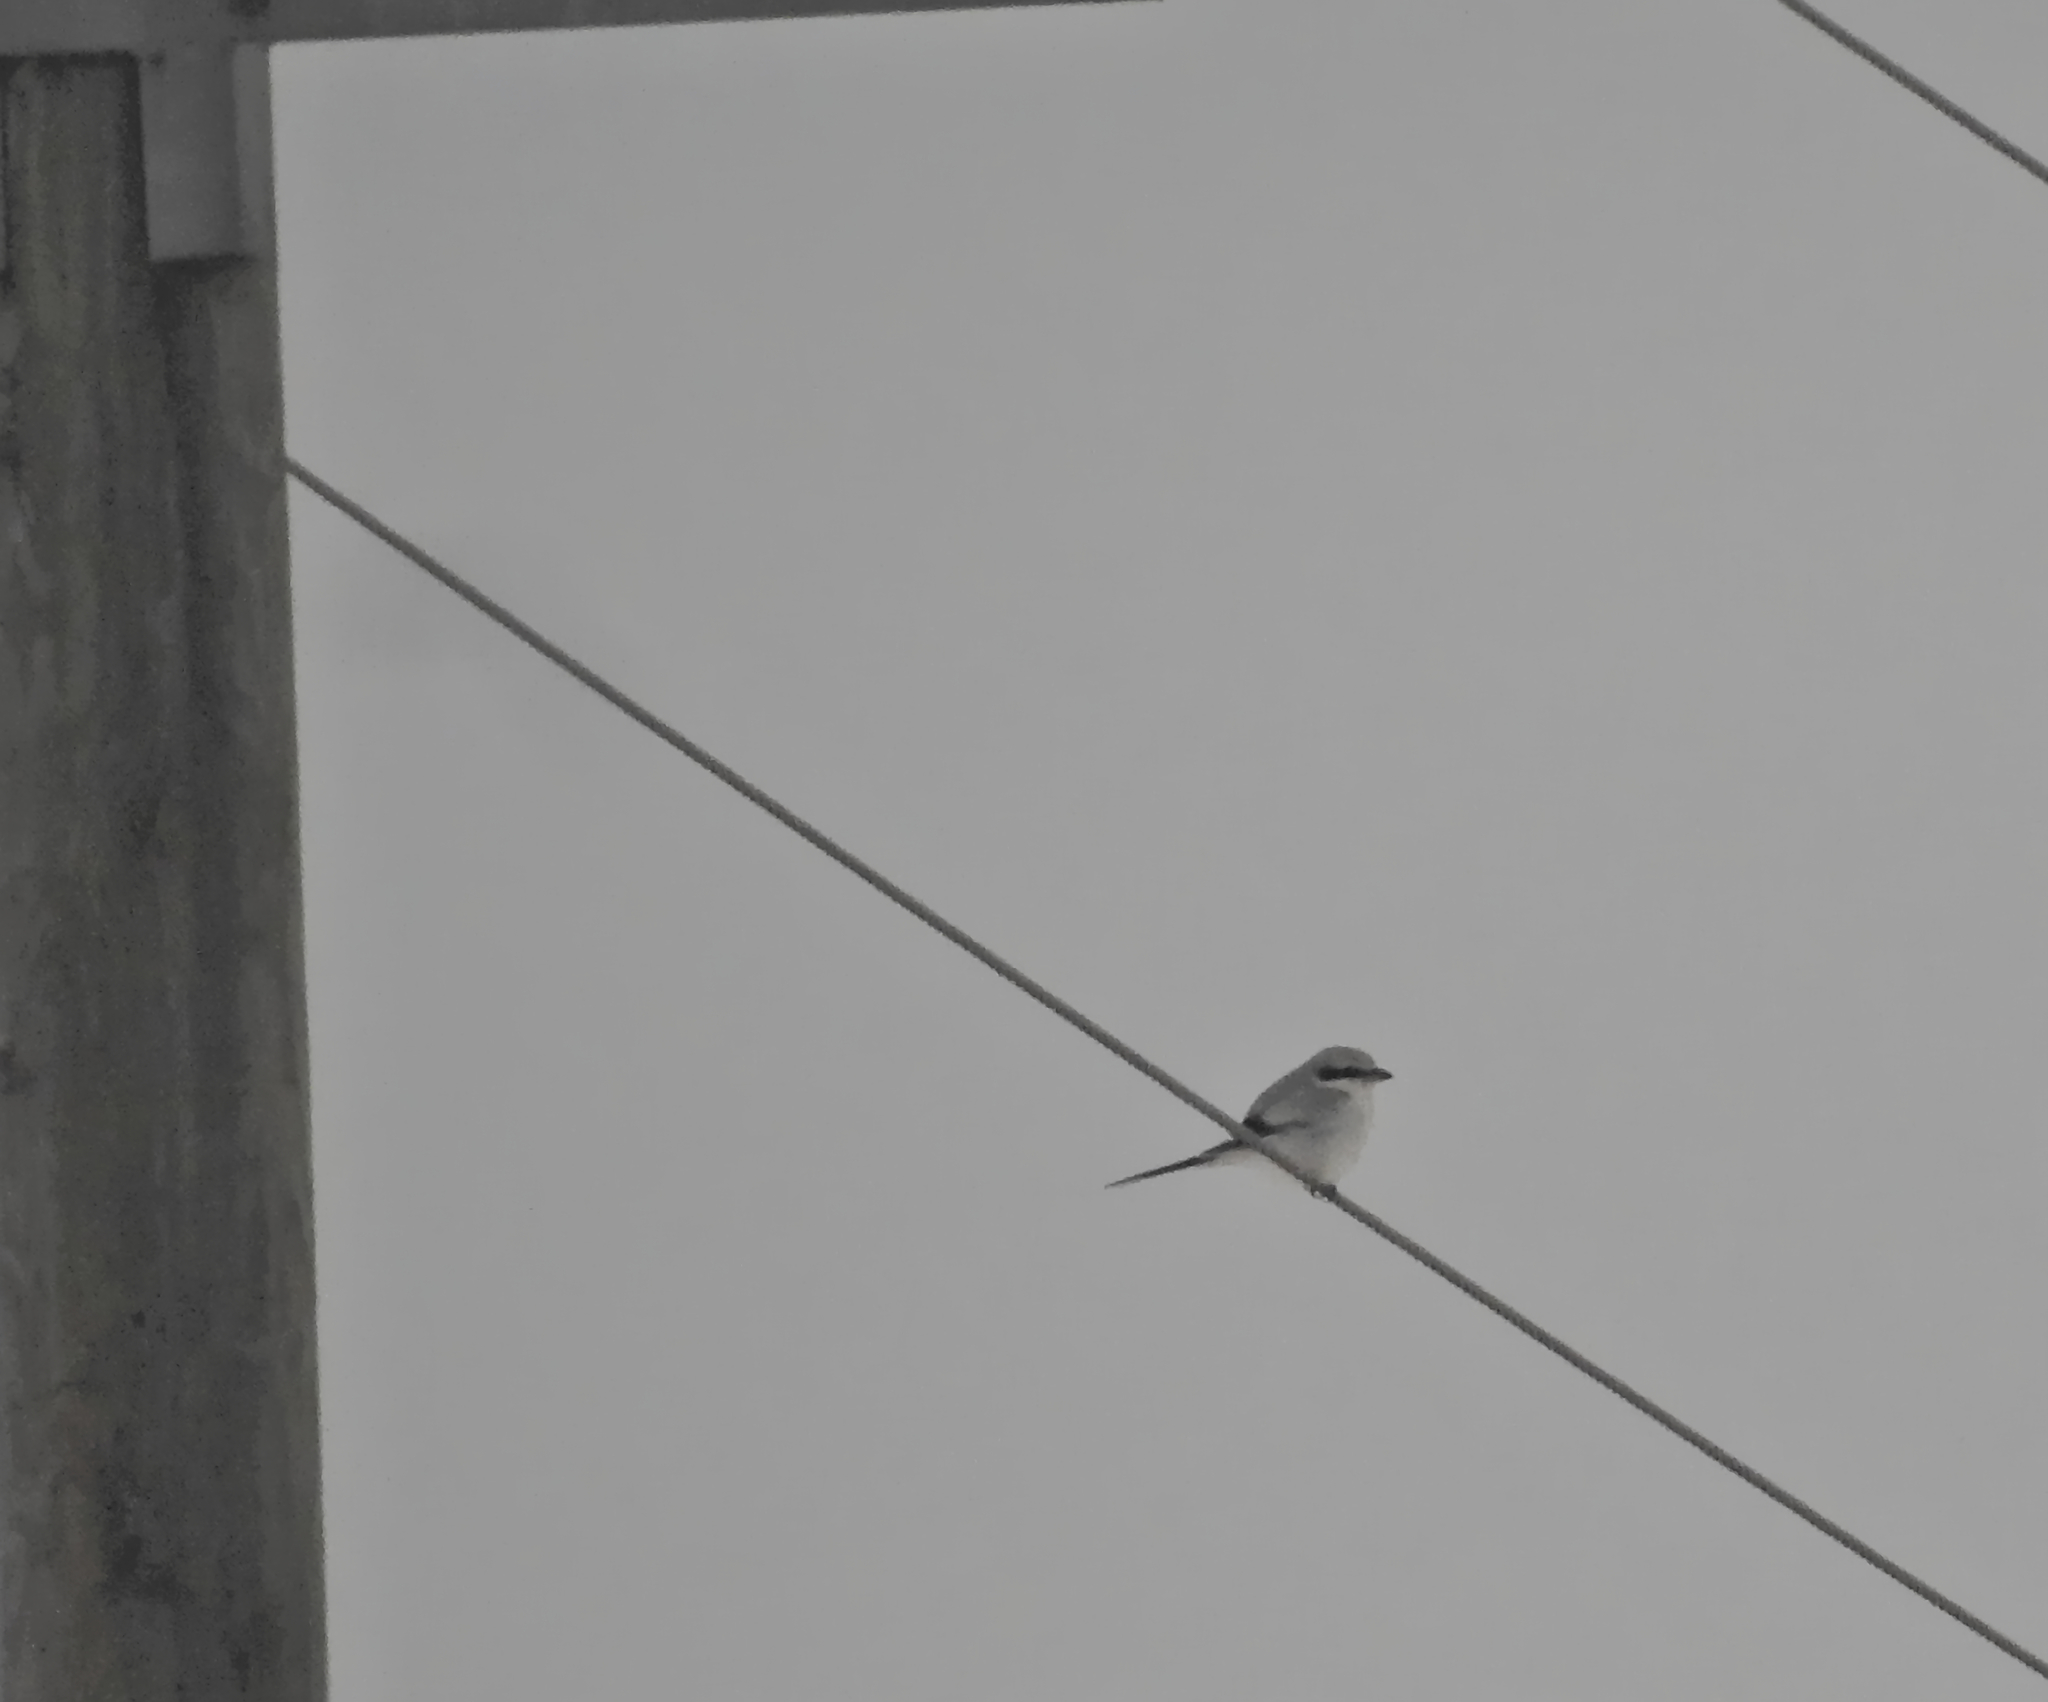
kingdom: Animalia
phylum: Chordata
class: Aves
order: Passeriformes
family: Laniidae
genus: Lanius
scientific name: Lanius excubitor
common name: Great grey shrike
